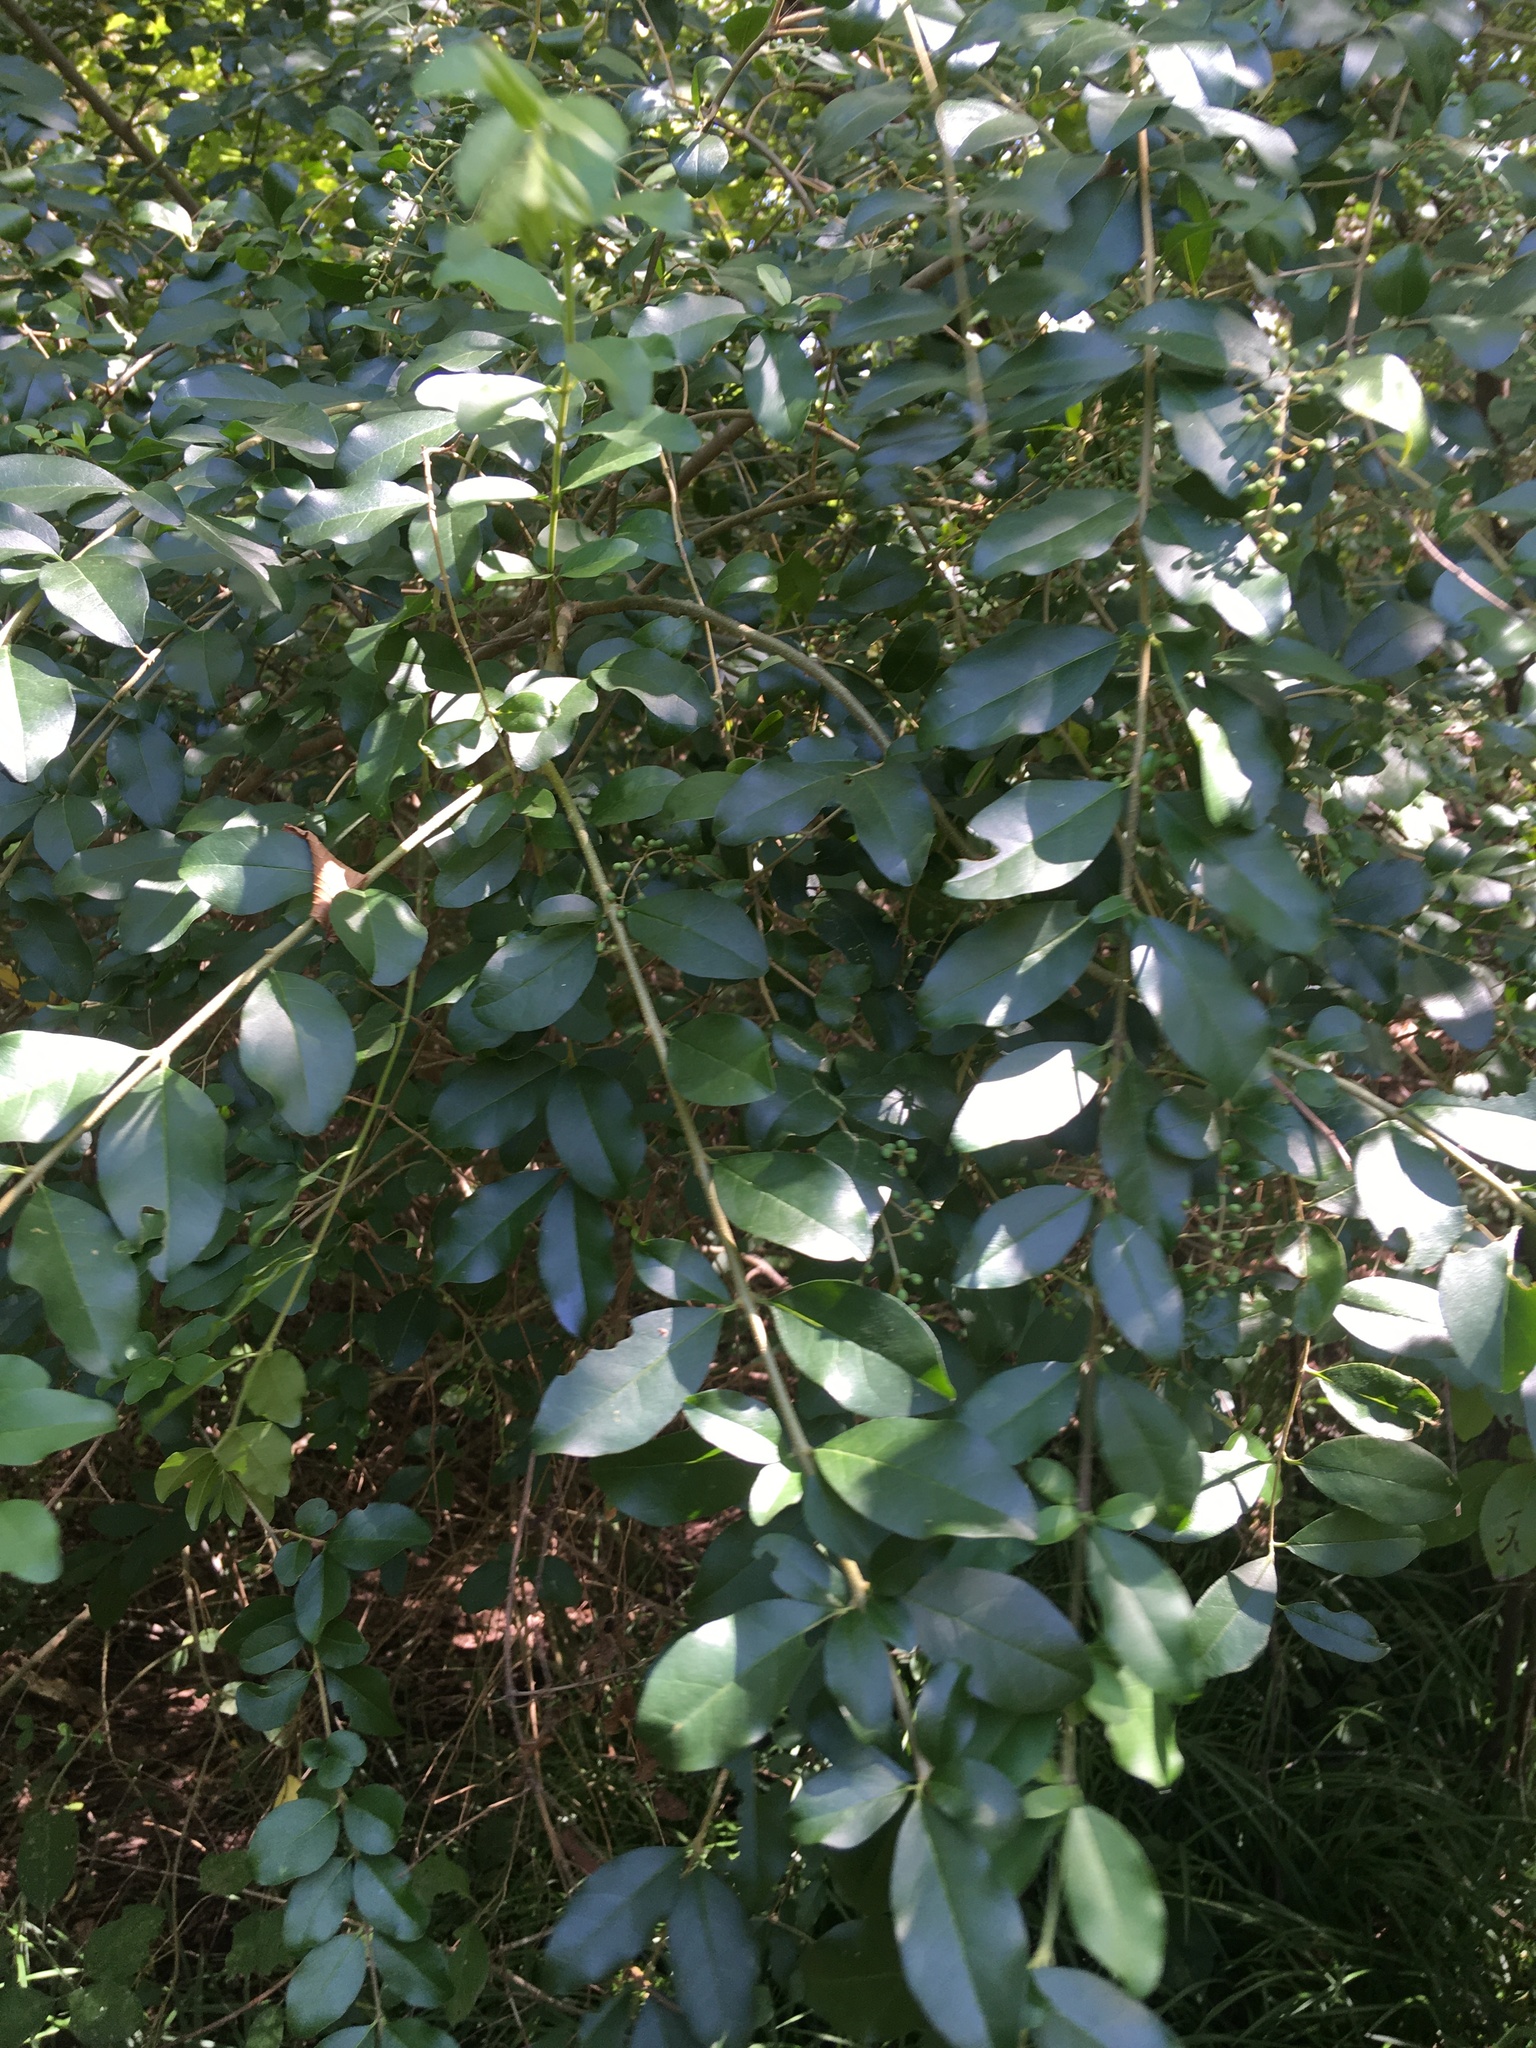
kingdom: Plantae
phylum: Tracheophyta
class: Magnoliopsida
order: Lamiales
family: Oleaceae
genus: Ligustrum
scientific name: Ligustrum sinense
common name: Chinese privet
